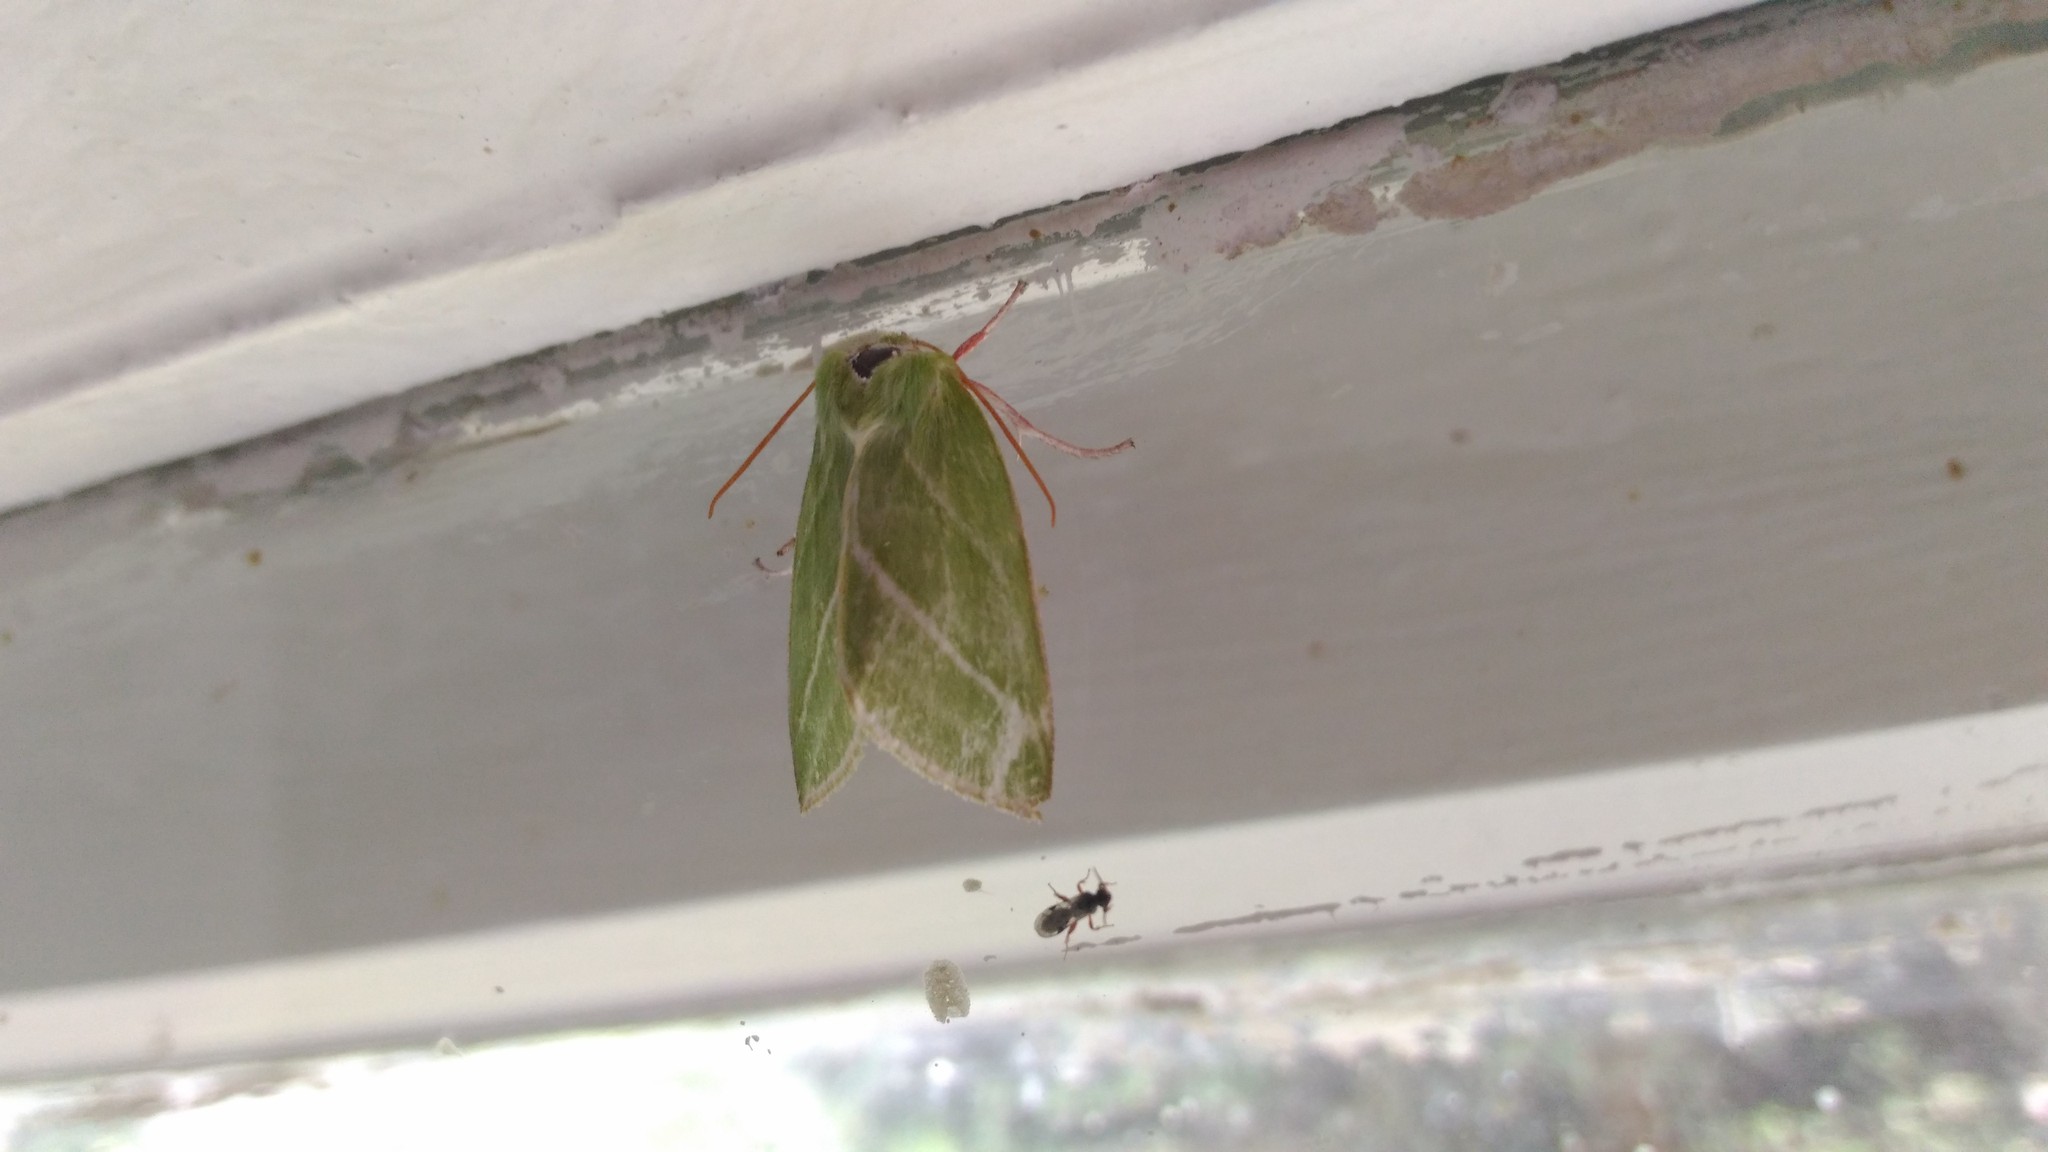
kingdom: Animalia
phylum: Arthropoda
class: Insecta
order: Lepidoptera
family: Nolidae
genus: Pseudoips
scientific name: Pseudoips prasinana
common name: Green silver-lines
